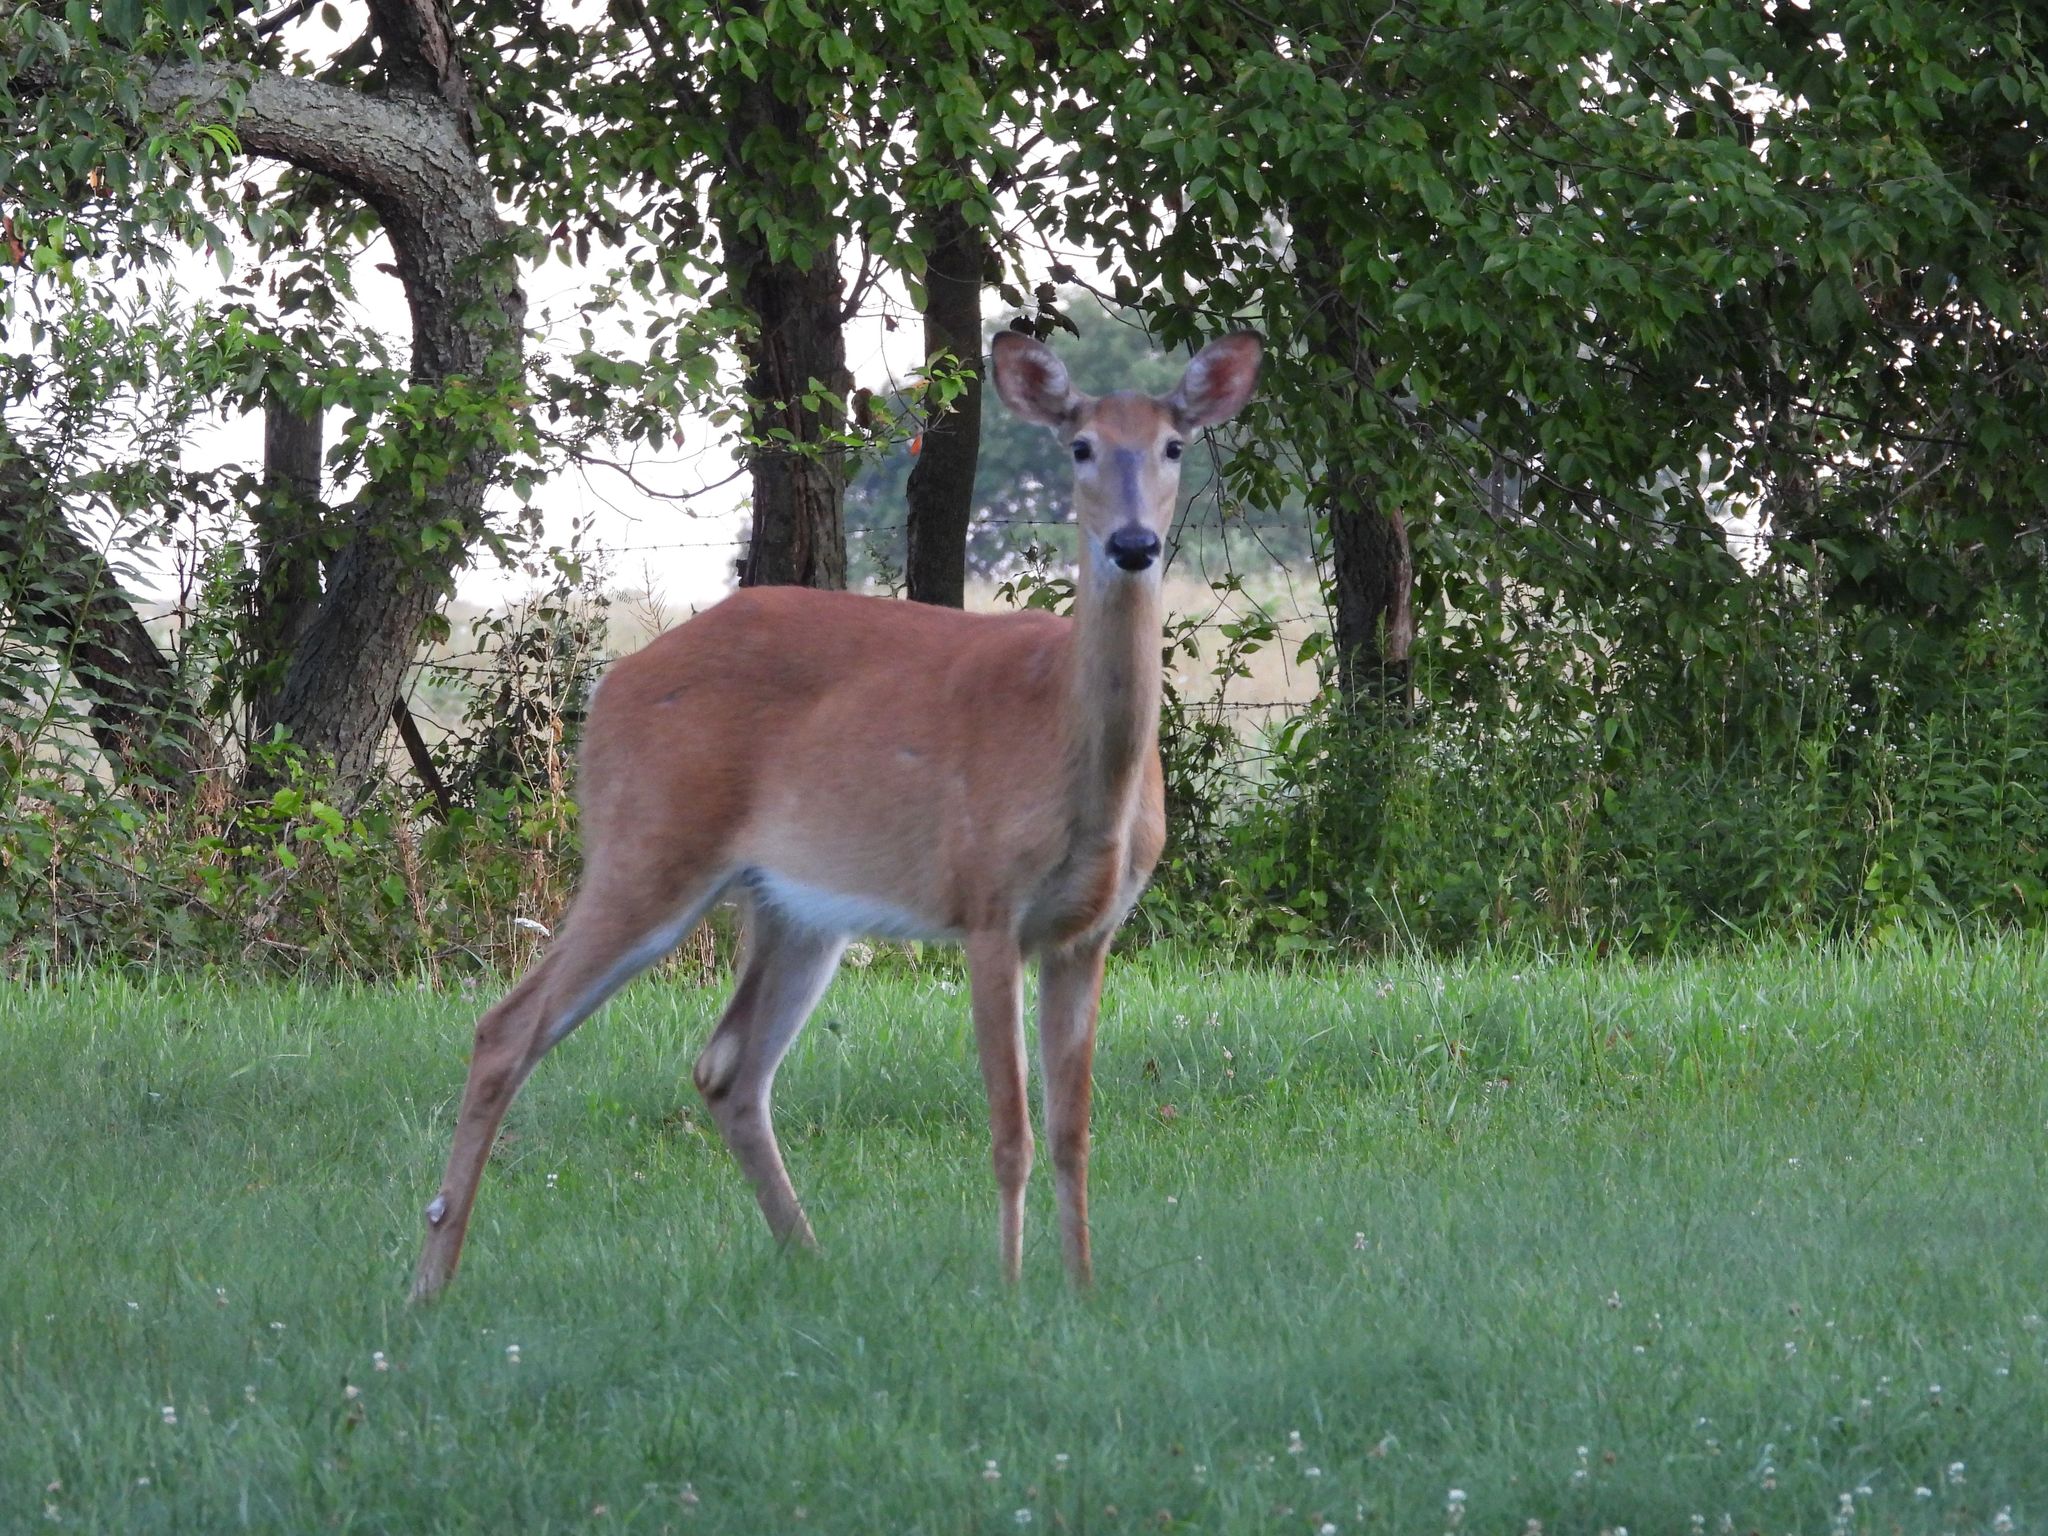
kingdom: Animalia
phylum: Chordata
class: Mammalia
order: Artiodactyla
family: Cervidae
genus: Odocoileus
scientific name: Odocoileus virginianus
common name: White-tailed deer
